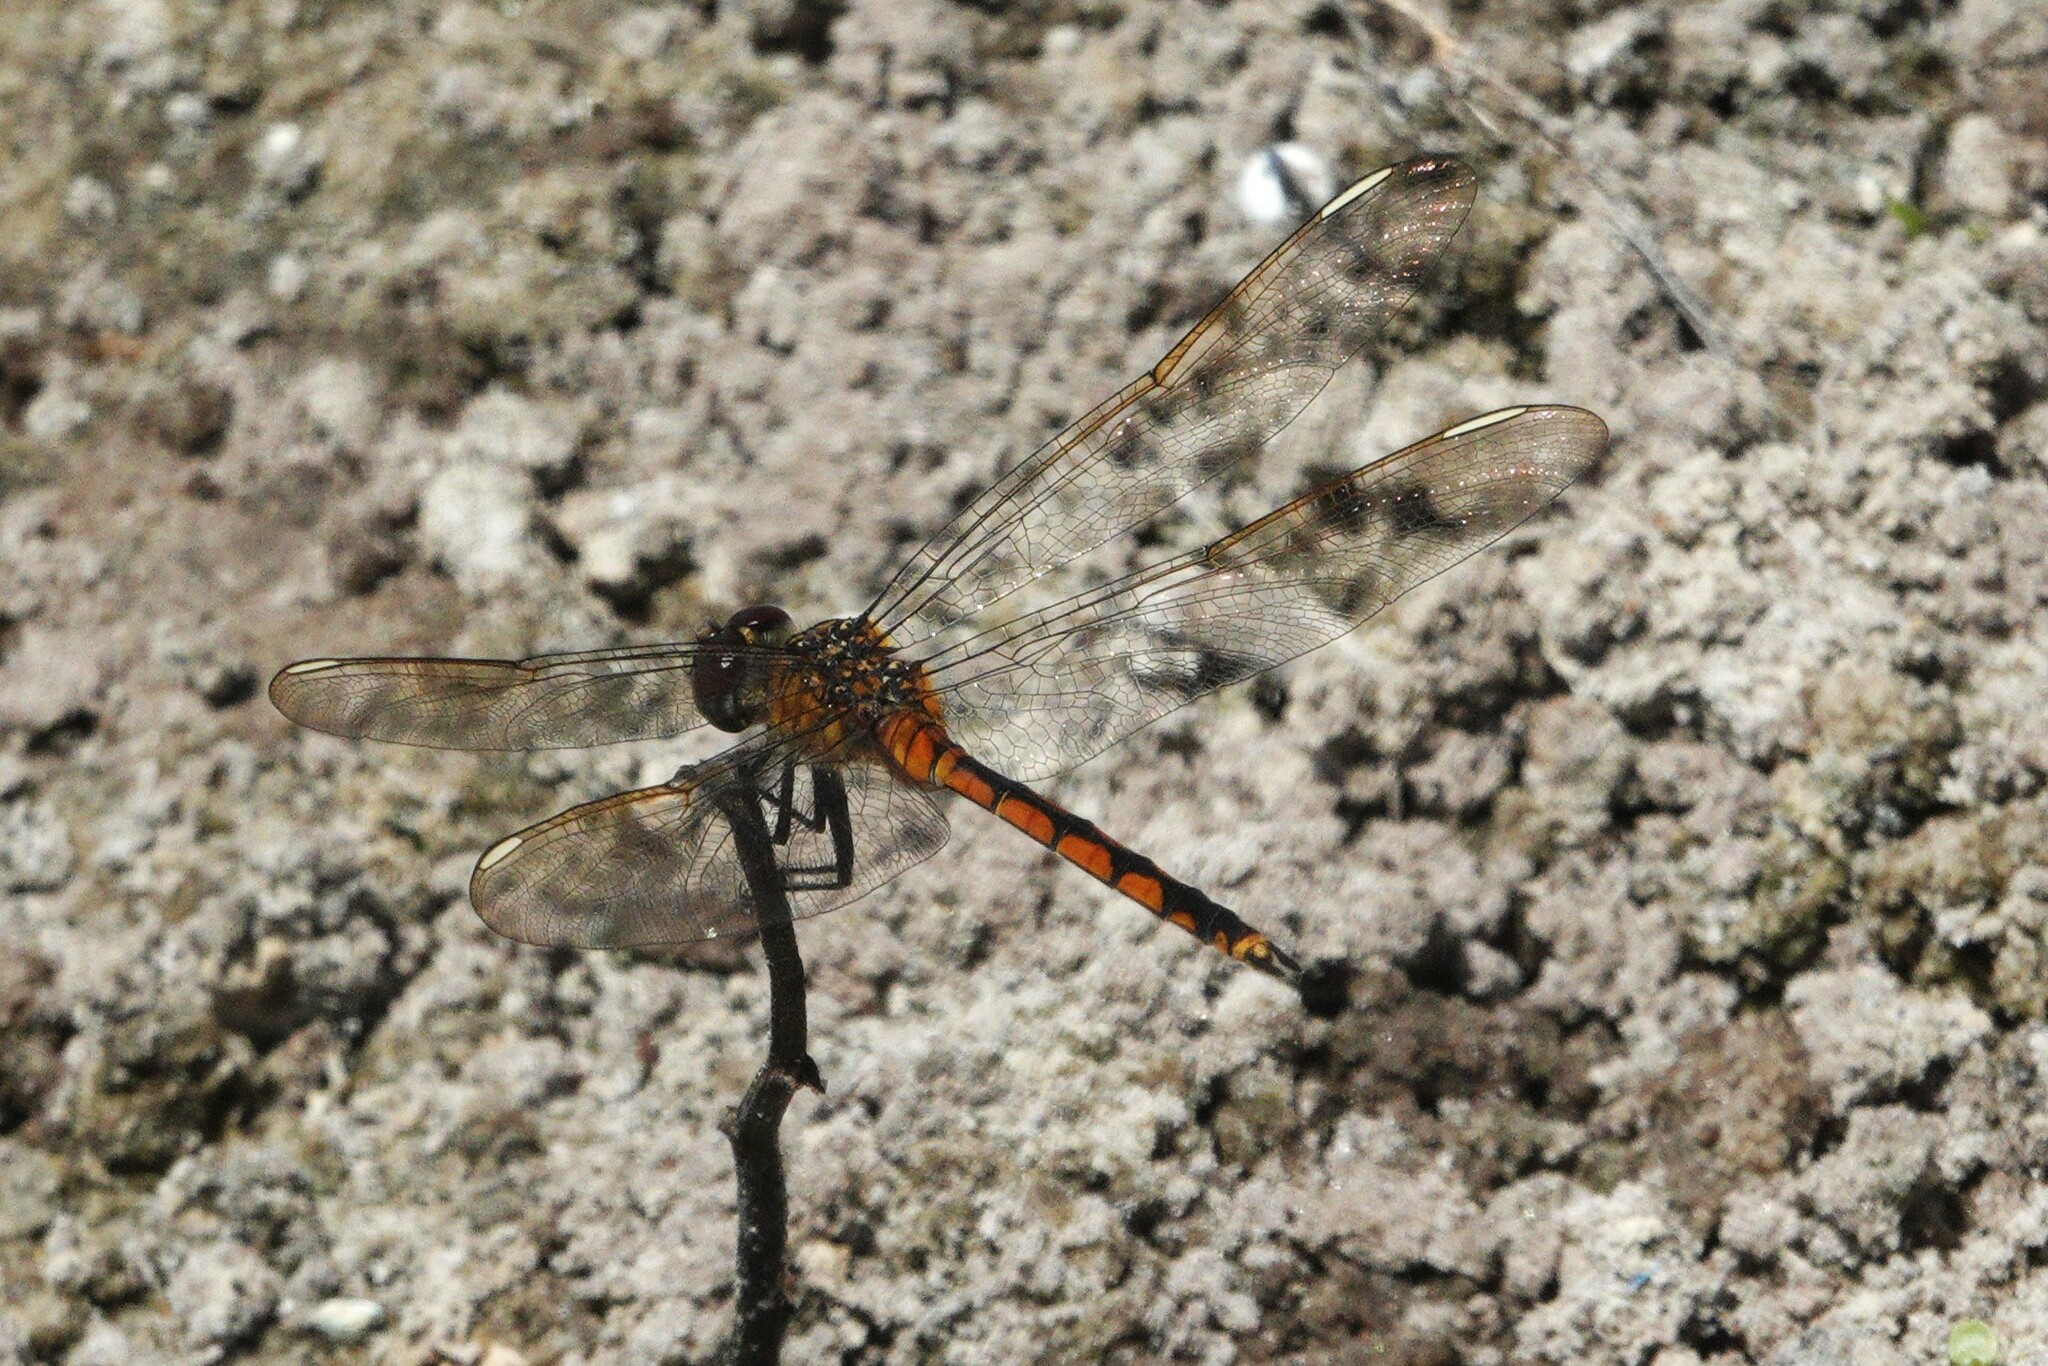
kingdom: Animalia
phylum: Arthropoda
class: Insecta
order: Odonata
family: Libellulidae
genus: Brachymesia
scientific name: Brachymesia gravida
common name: Four-spotted pennant
